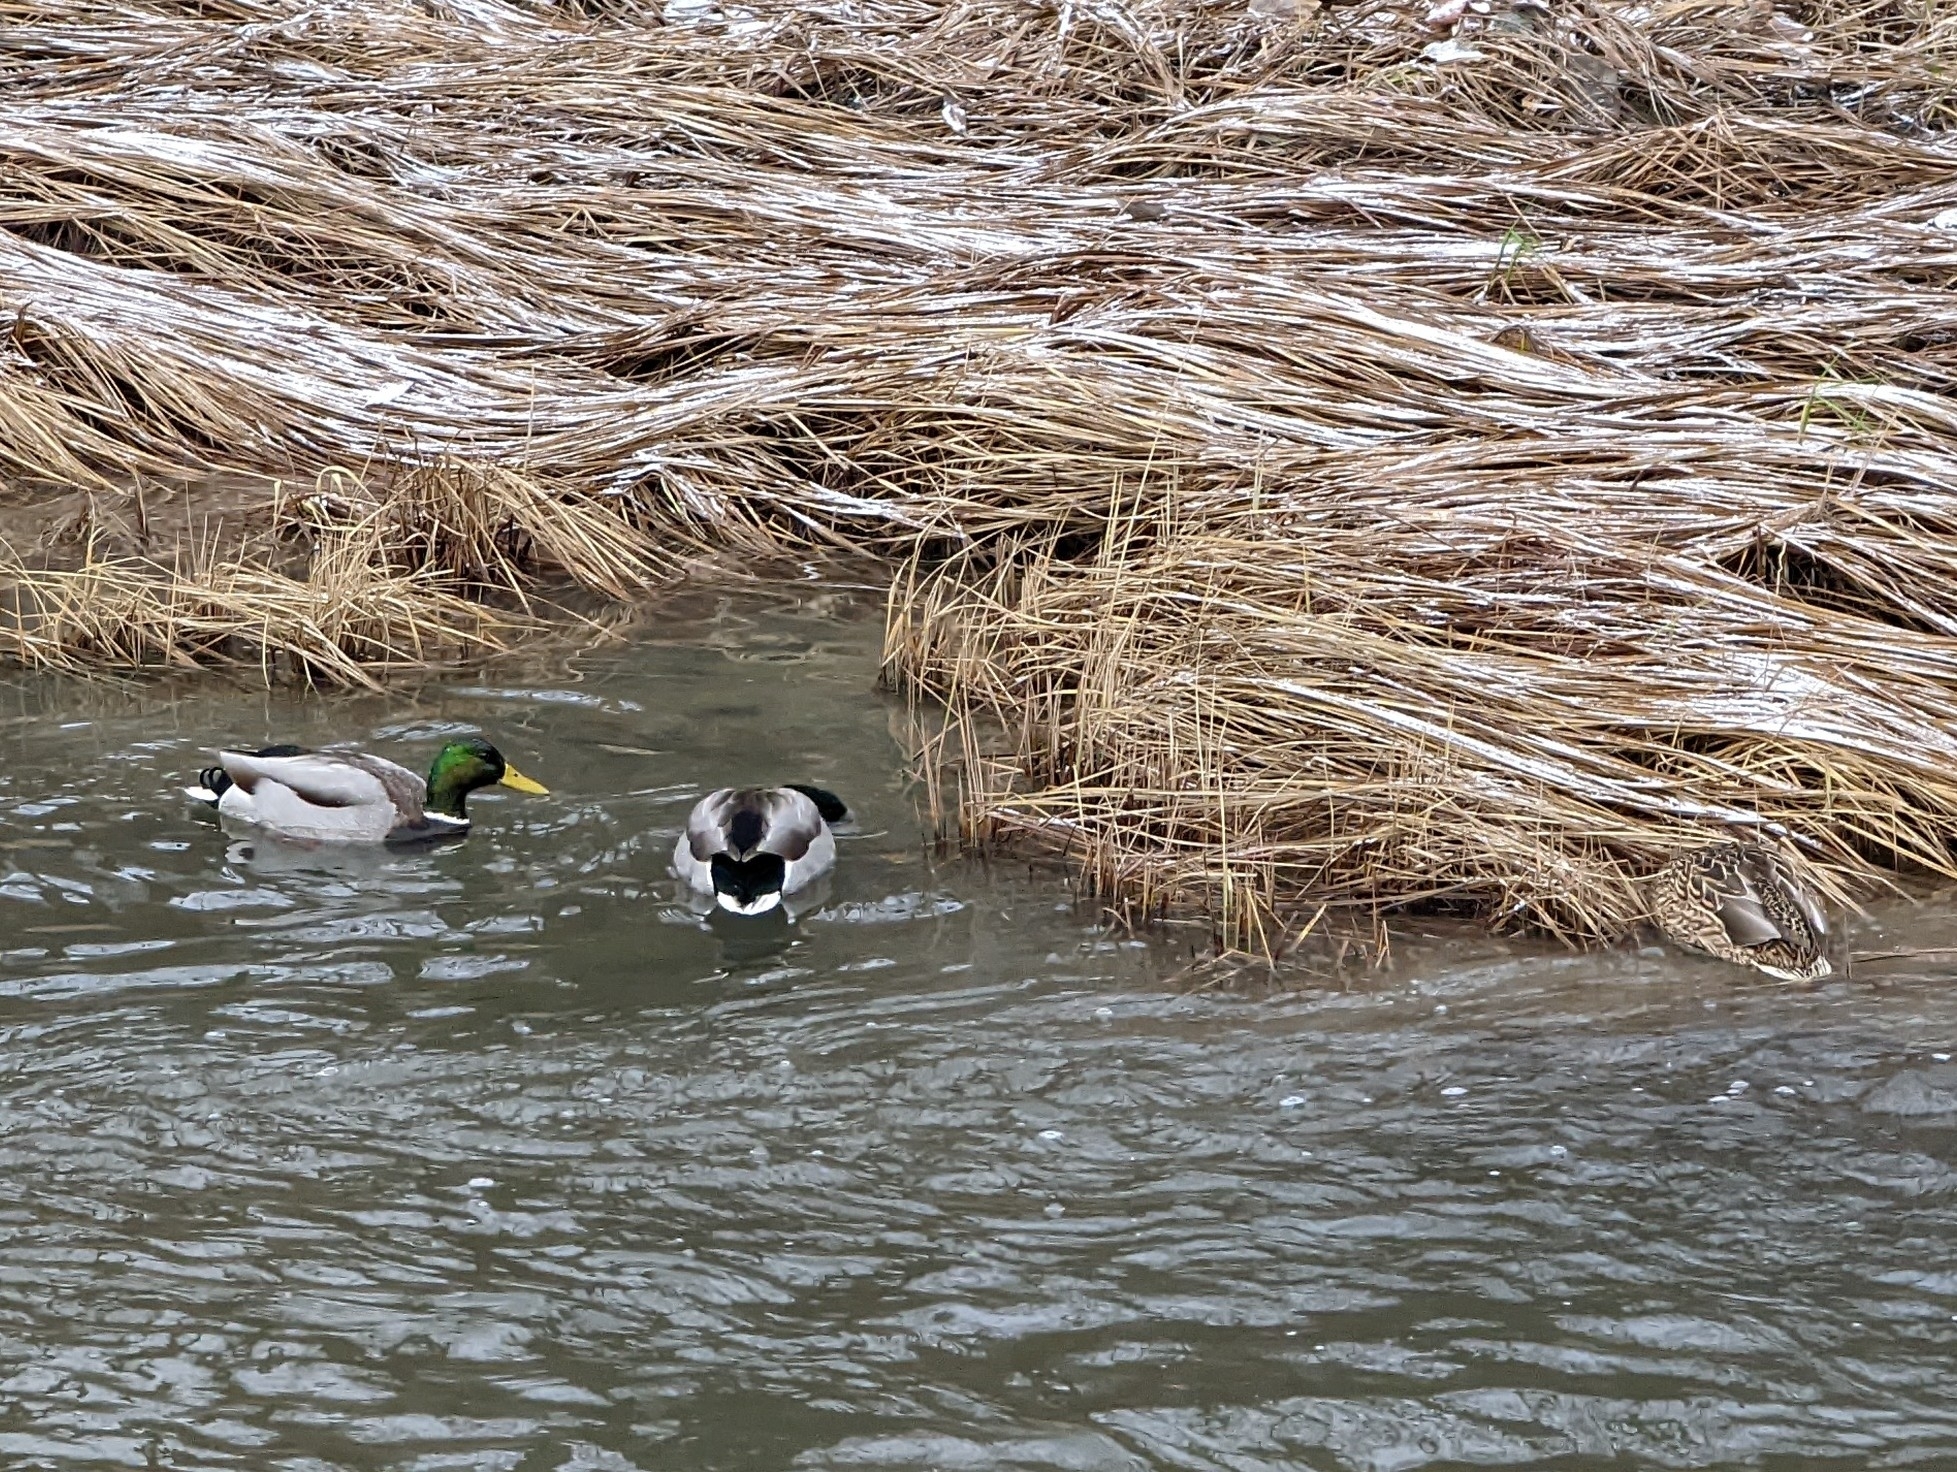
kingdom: Animalia
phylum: Chordata
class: Aves
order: Anseriformes
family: Anatidae
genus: Anas
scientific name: Anas platyrhynchos
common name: Mallard
